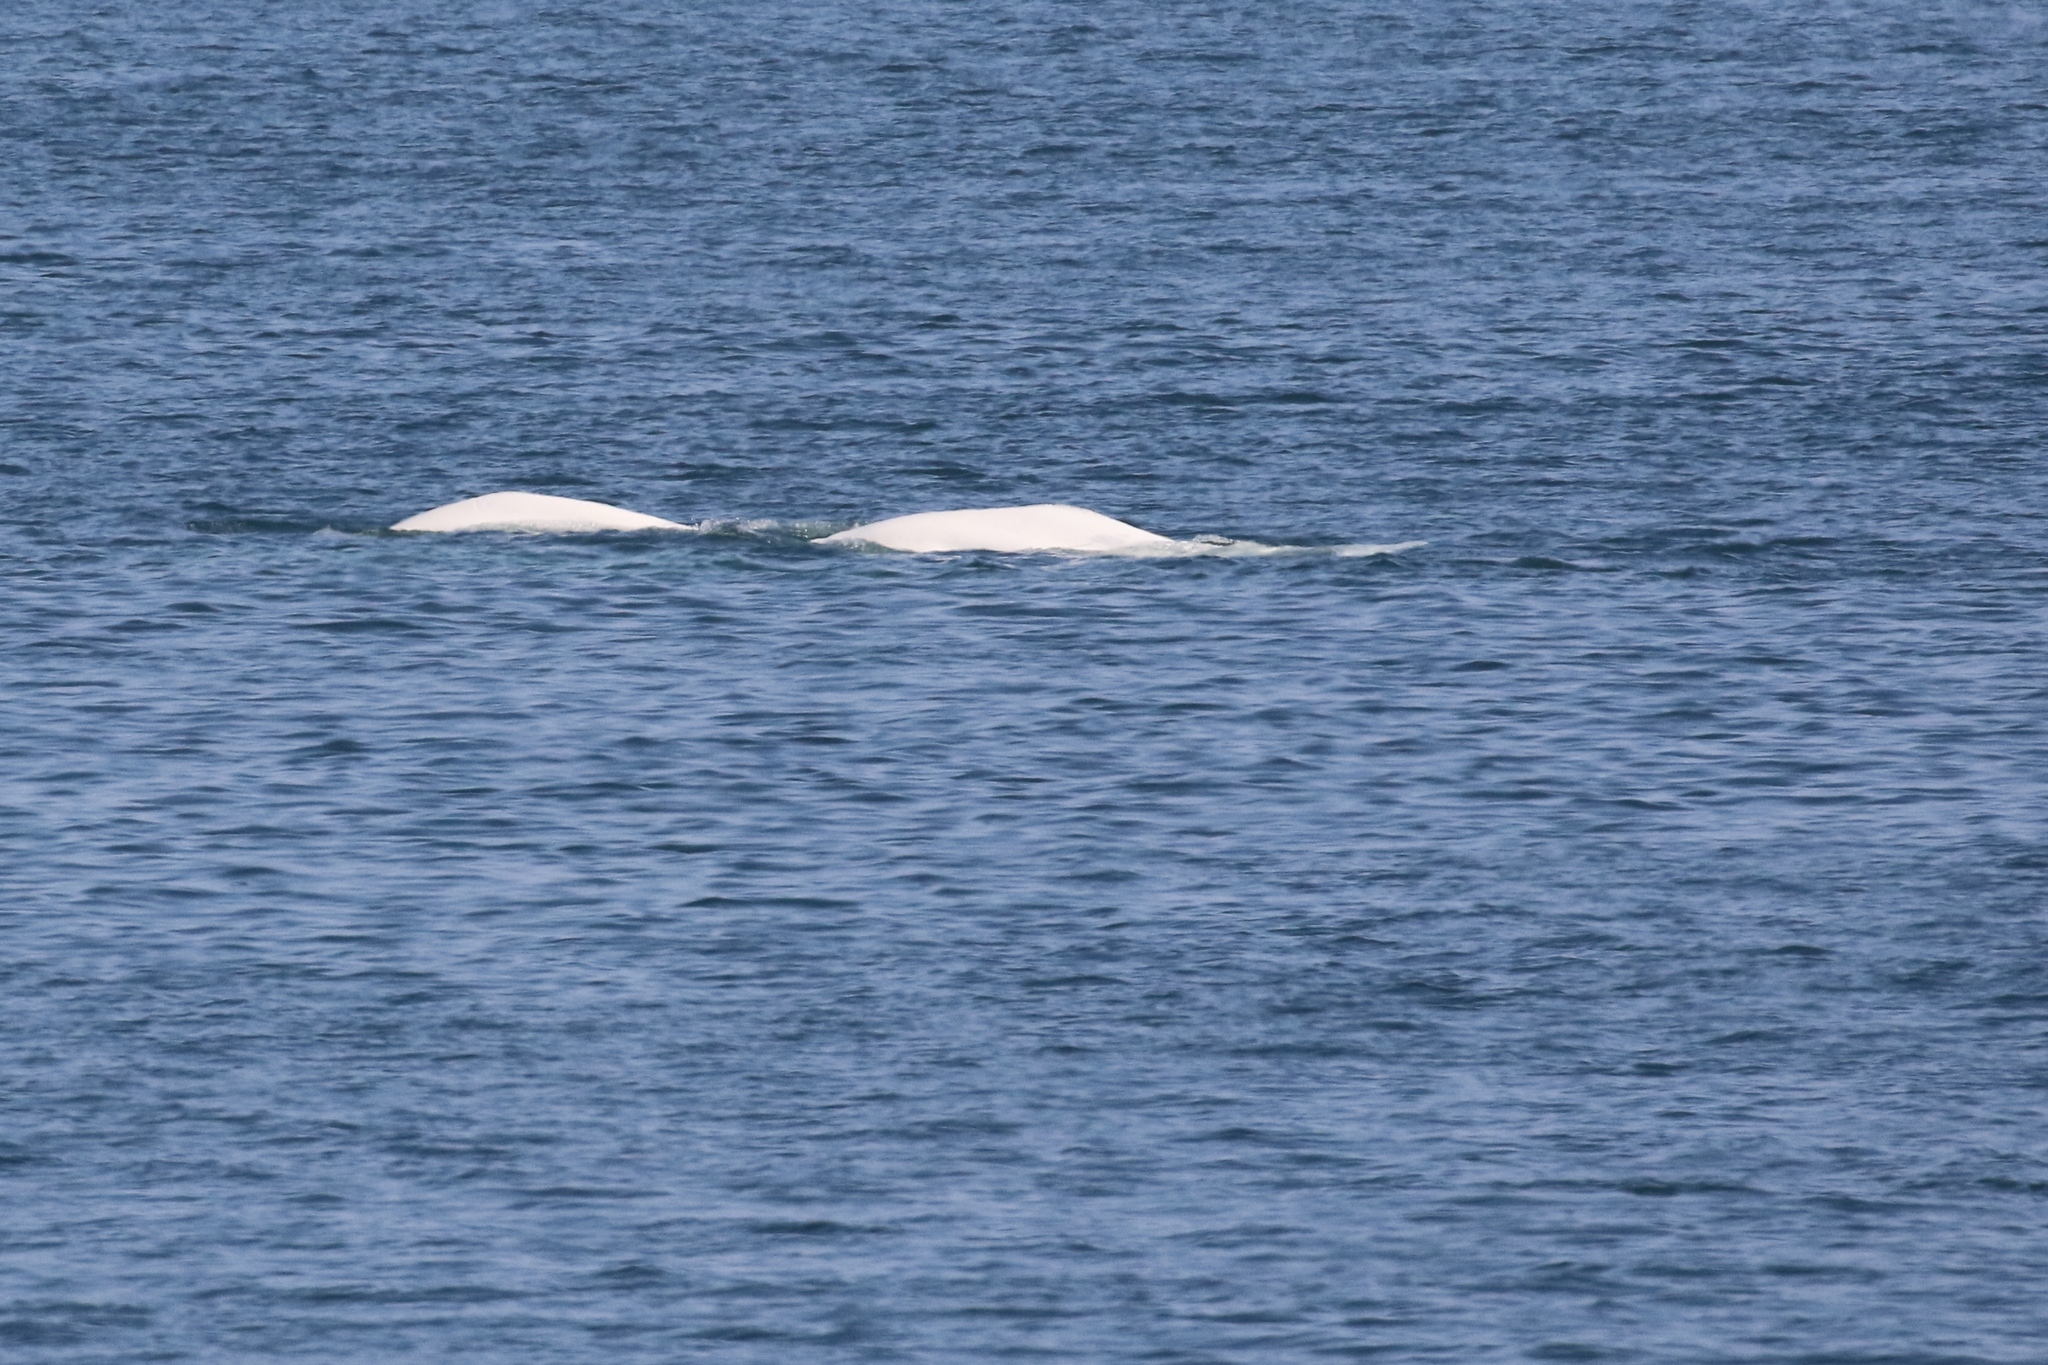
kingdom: Animalia
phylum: Chordata
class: Mammalia
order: Cetacea
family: Monodontidae
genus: Delphinapterus
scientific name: Delphinapterus leucas
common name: Beluga
